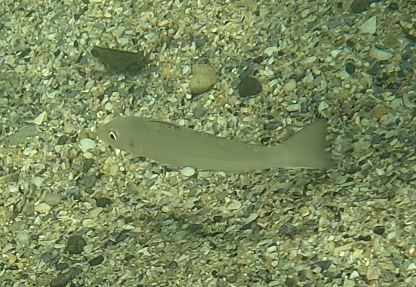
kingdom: Animalia
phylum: Chordata
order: Perciformes
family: Sillaginidae
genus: Sillago
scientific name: Sillago ciliata
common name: Sand sillago
